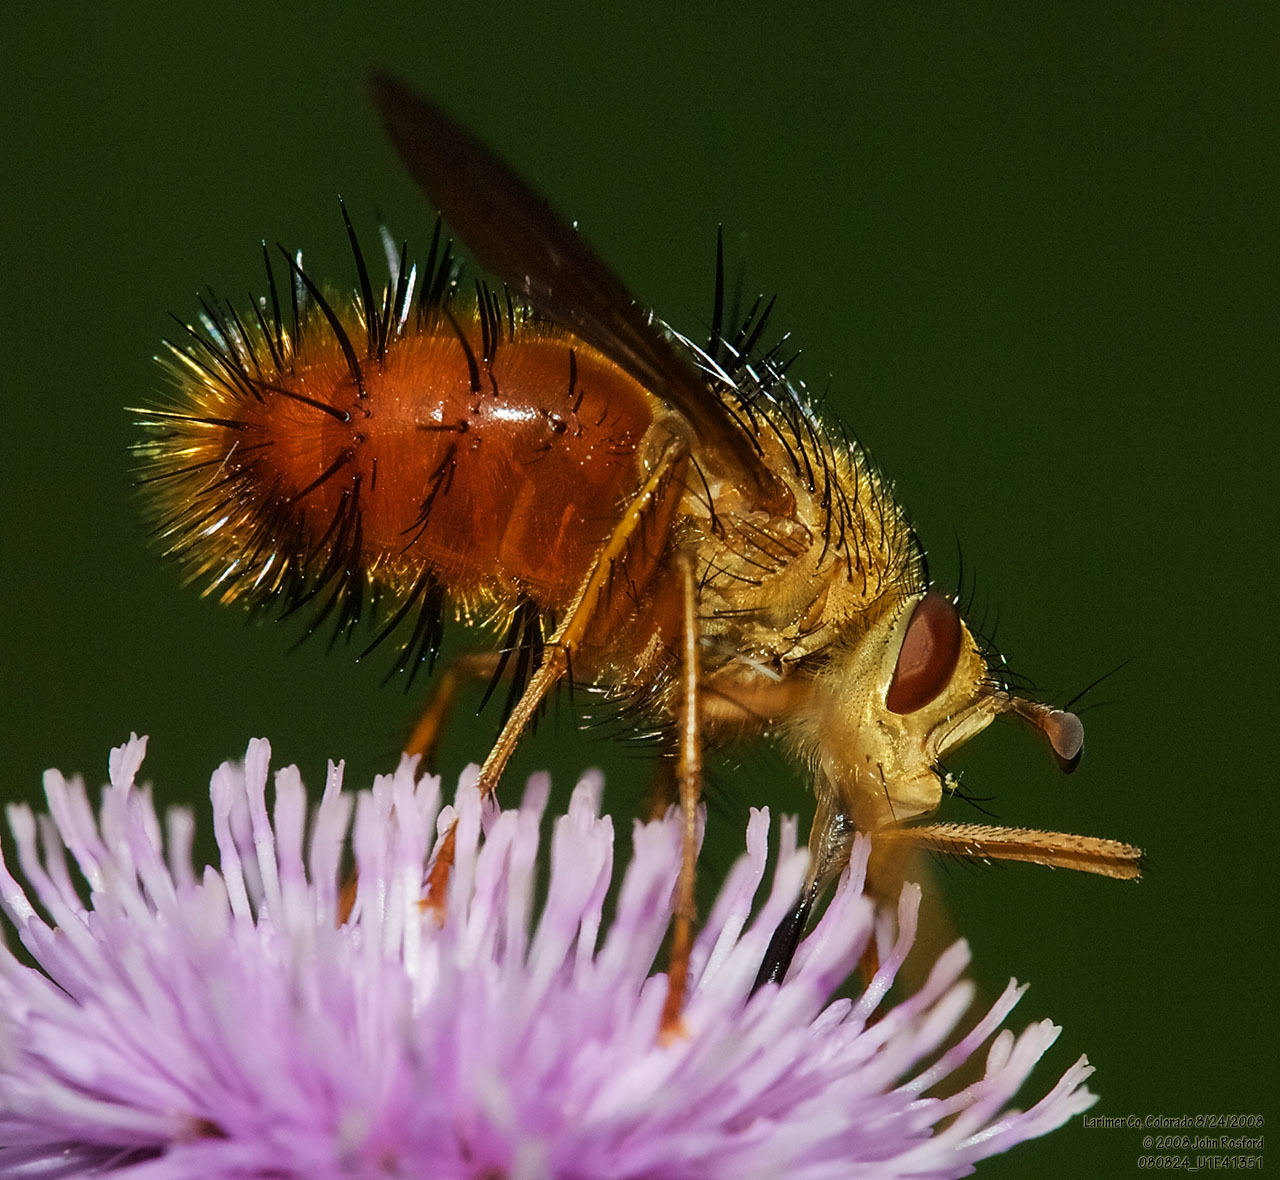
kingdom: Animalia
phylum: Arthropoda
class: Insecta
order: Diptera
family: Tachinidae
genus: Adejeania
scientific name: Adejeania vexatrix
